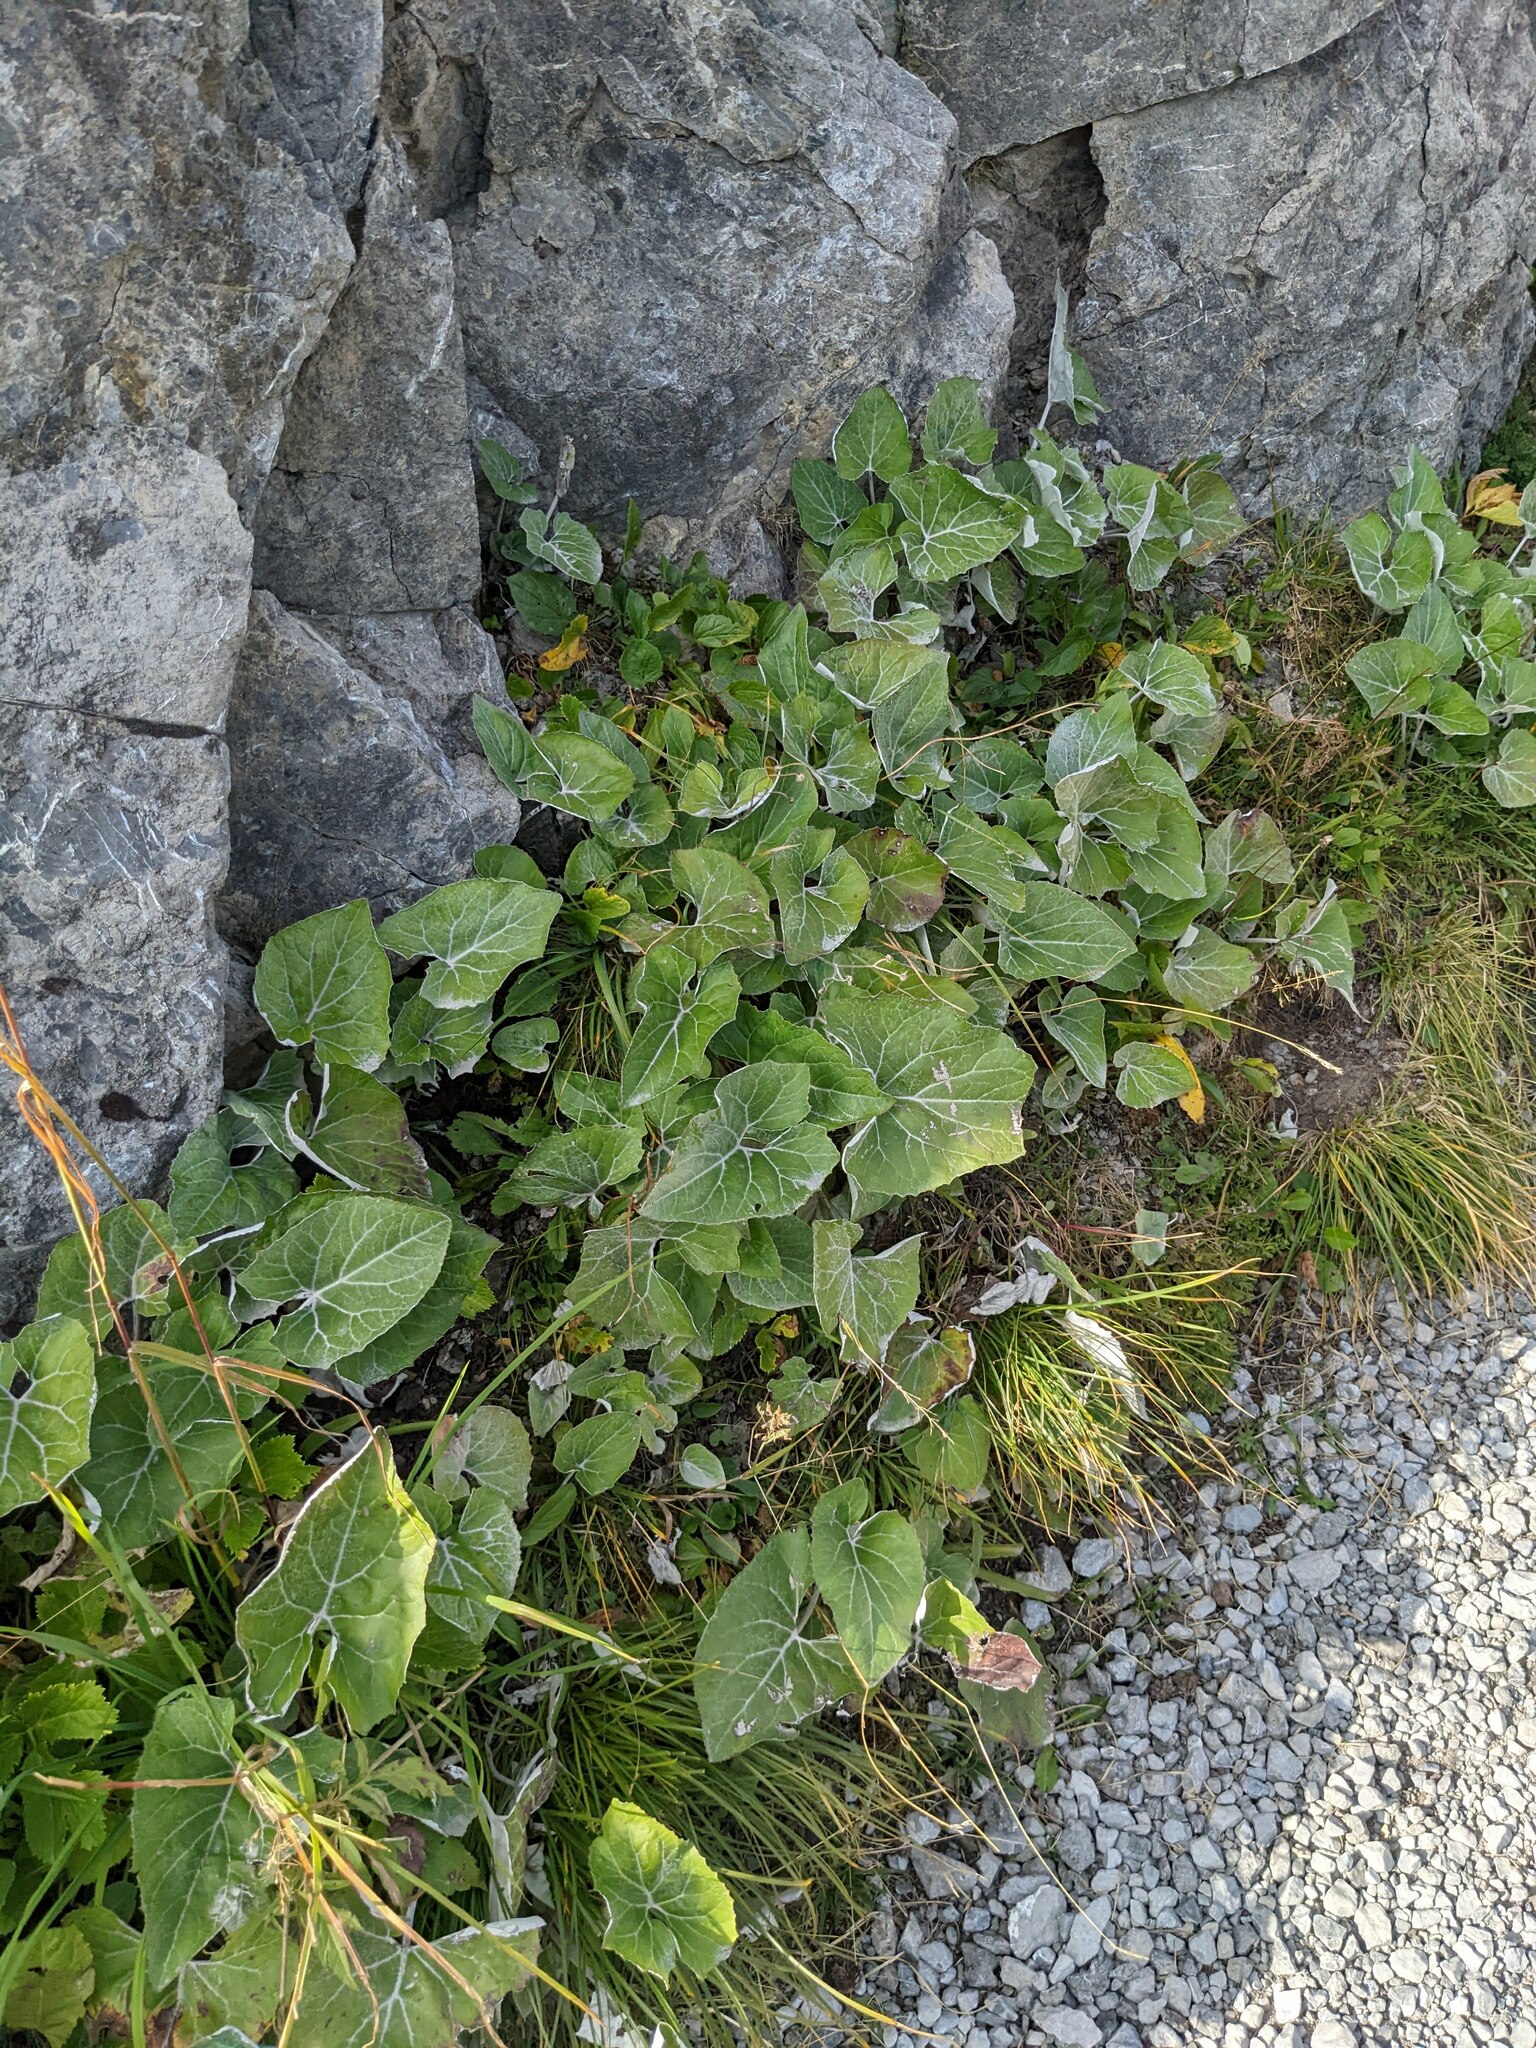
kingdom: Plantae
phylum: Tracheophyta
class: Magnoliopsida
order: Asterales
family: Asteraceae
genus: Petasites
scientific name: Petasites paradoxus
